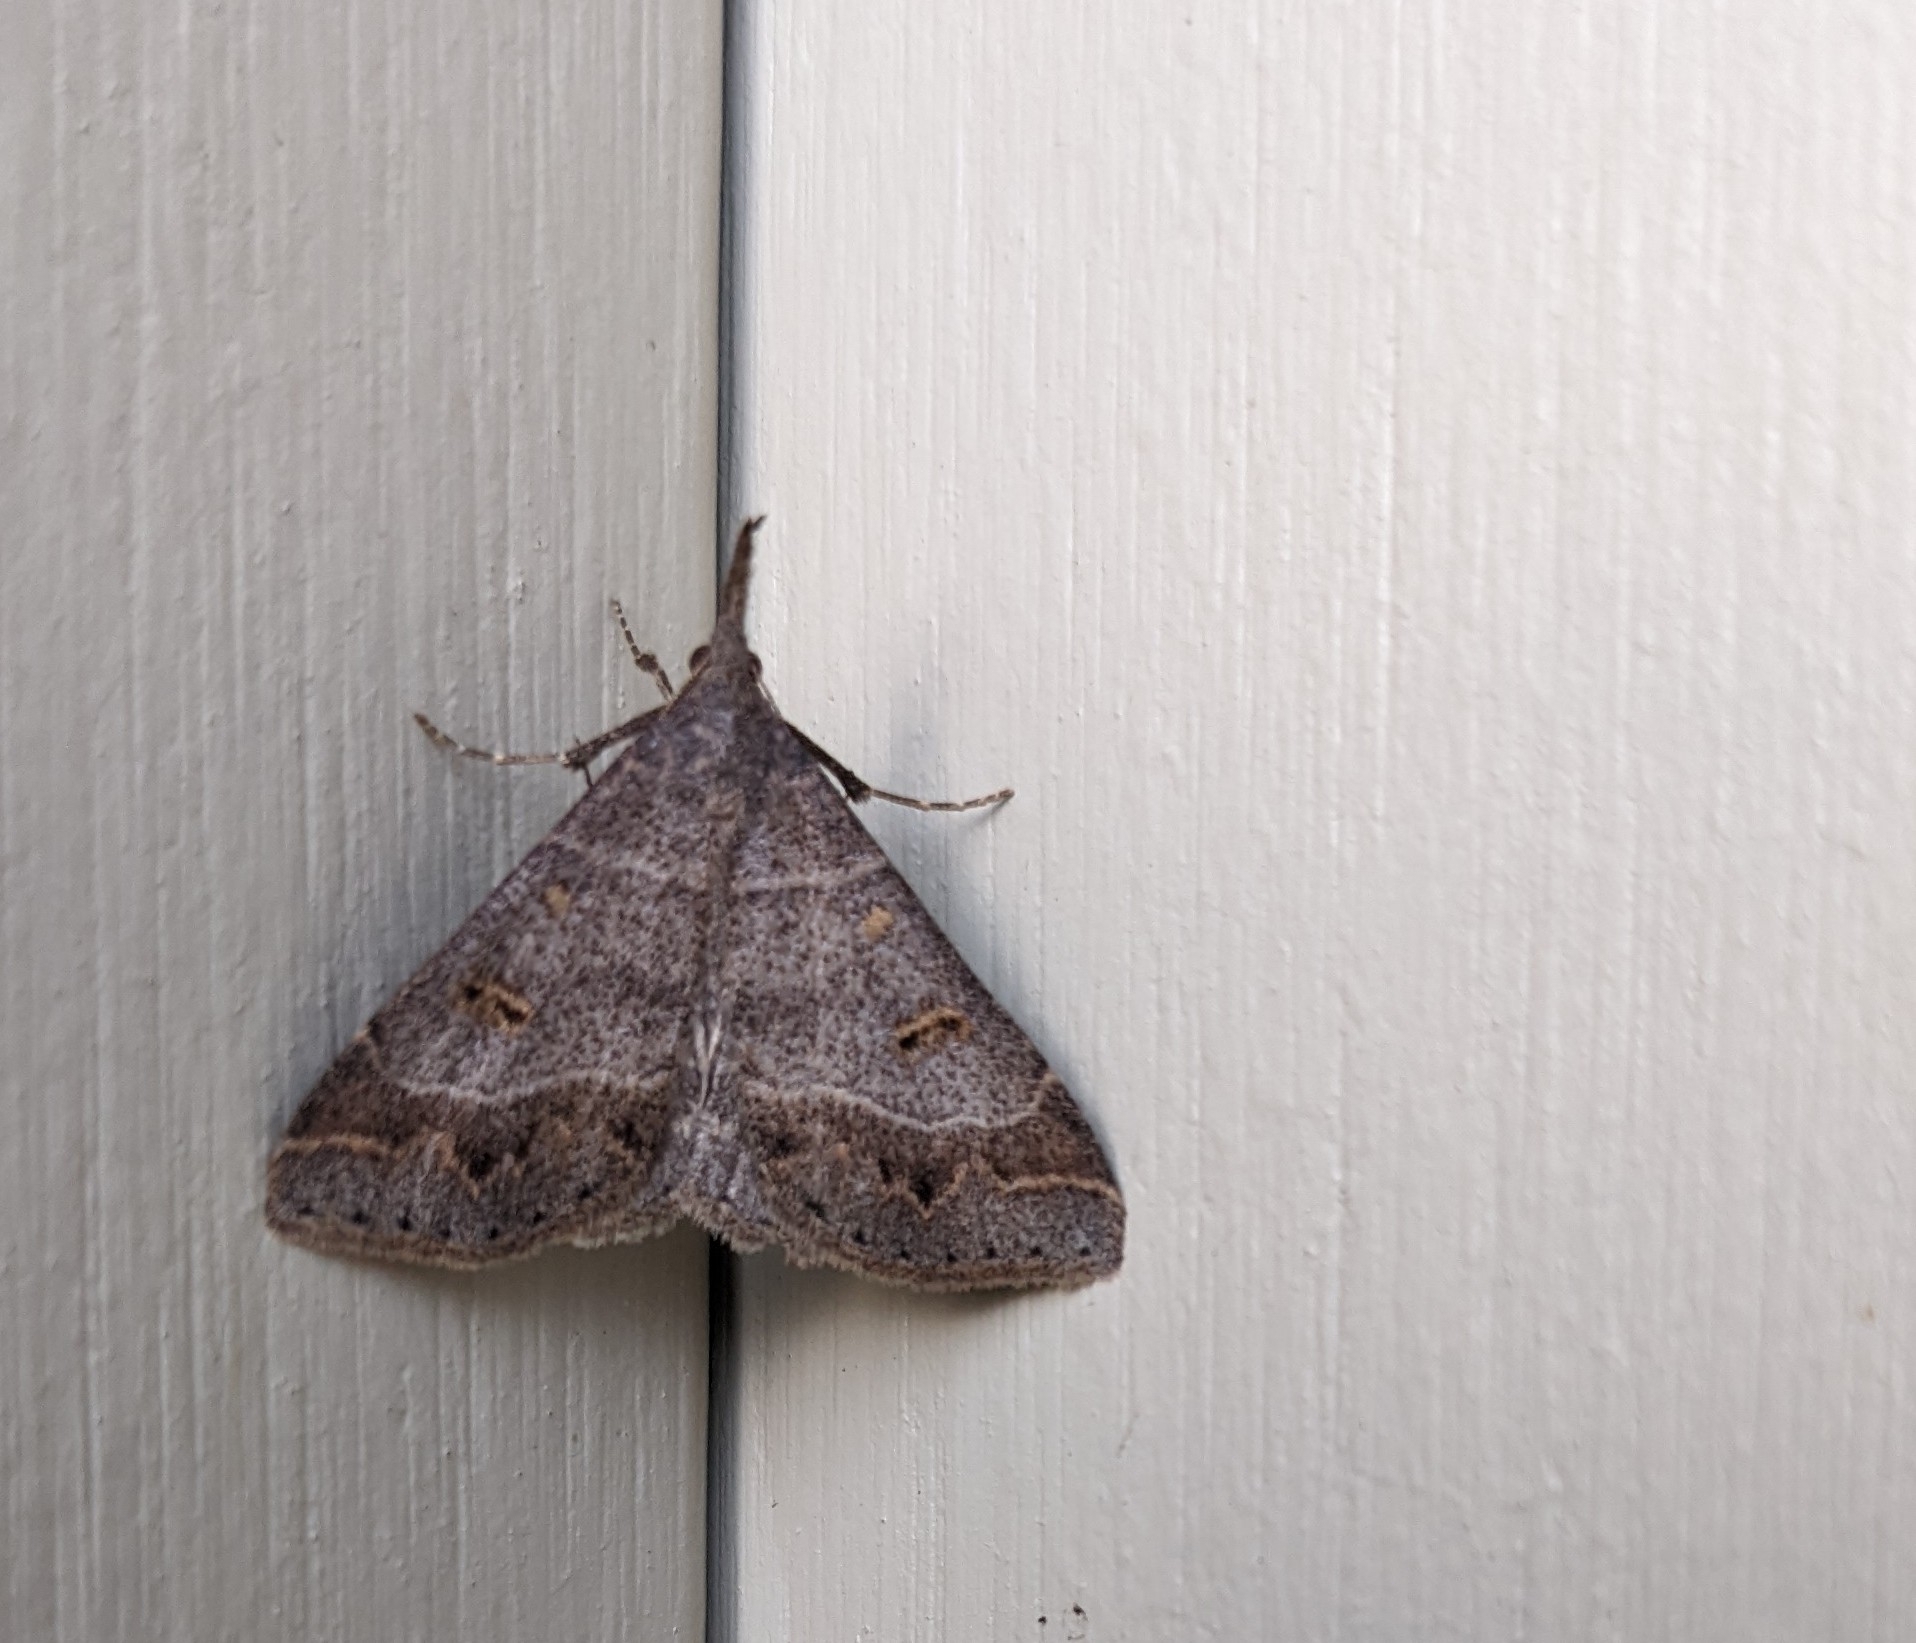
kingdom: Animalia
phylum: Arthropoda
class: Insecta
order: Lepidoptera
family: Erebidae
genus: Renia
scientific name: Renia flavipunctalis
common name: Yellow-spotted renia moth
